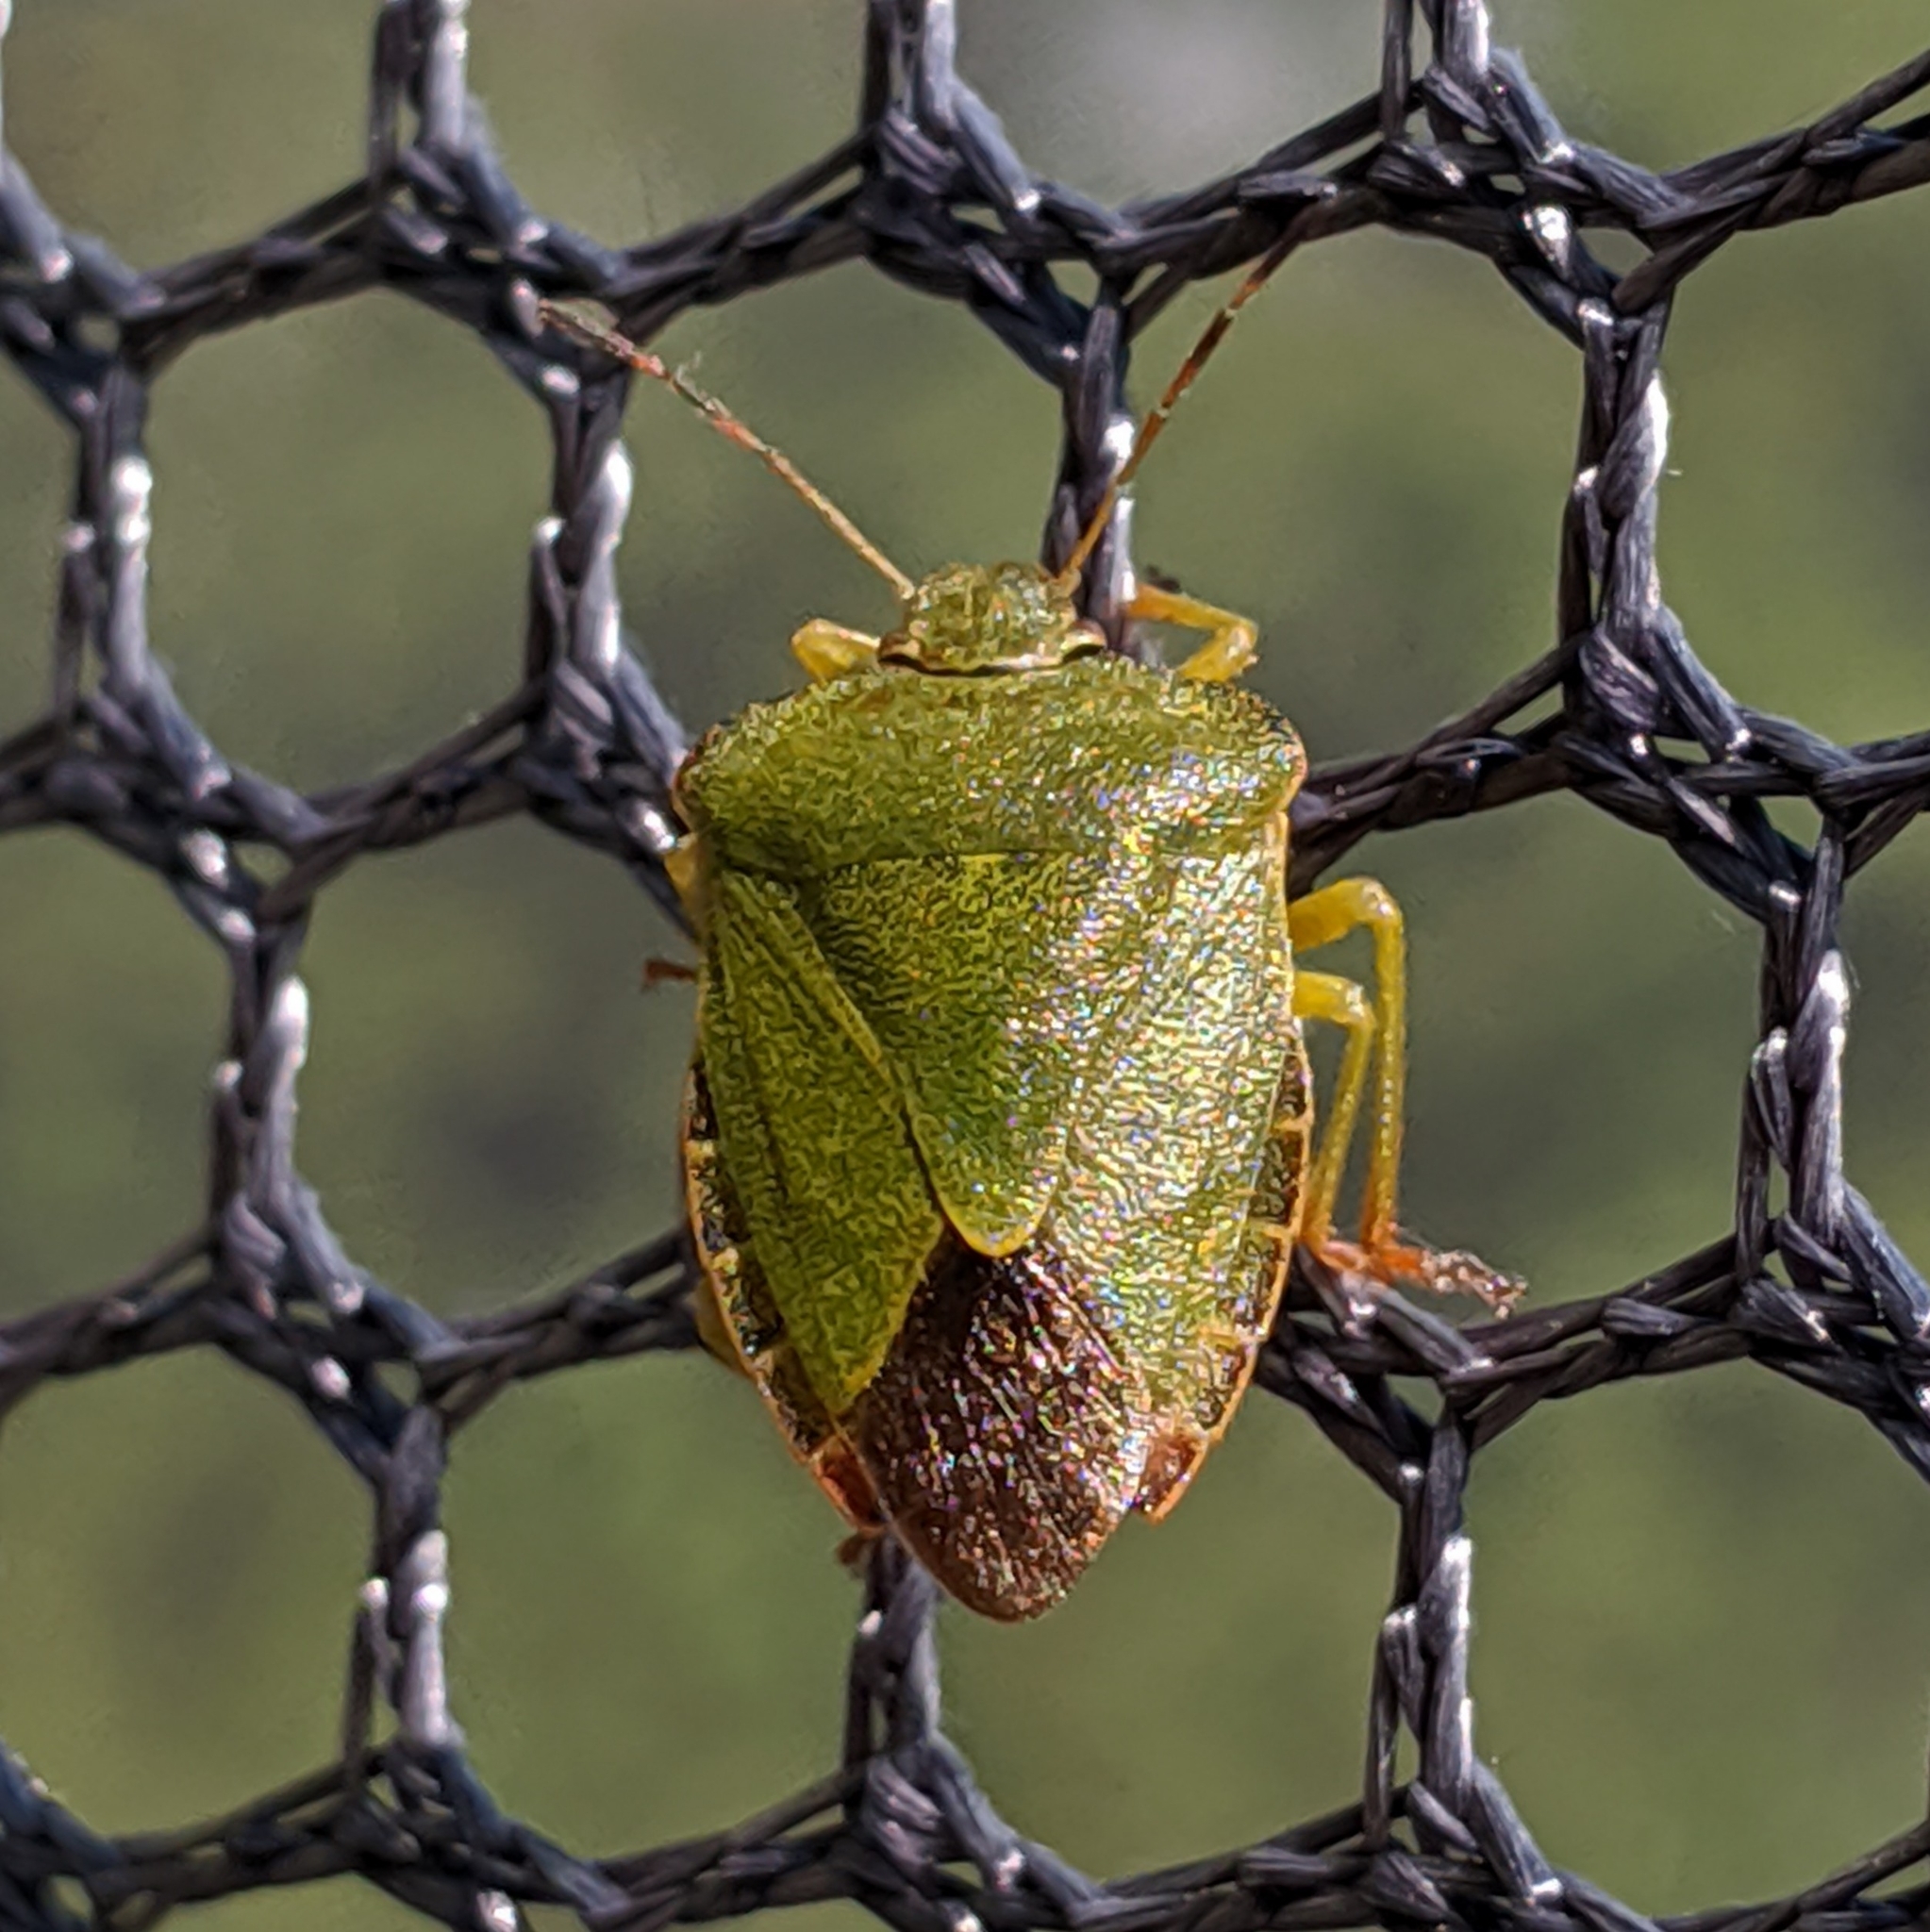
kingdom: Animalia
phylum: Arthropoda
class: Insecta
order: Hemiptera
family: Pentatomidae
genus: Palomena
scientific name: Palomena prasina
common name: Green shieldbug
